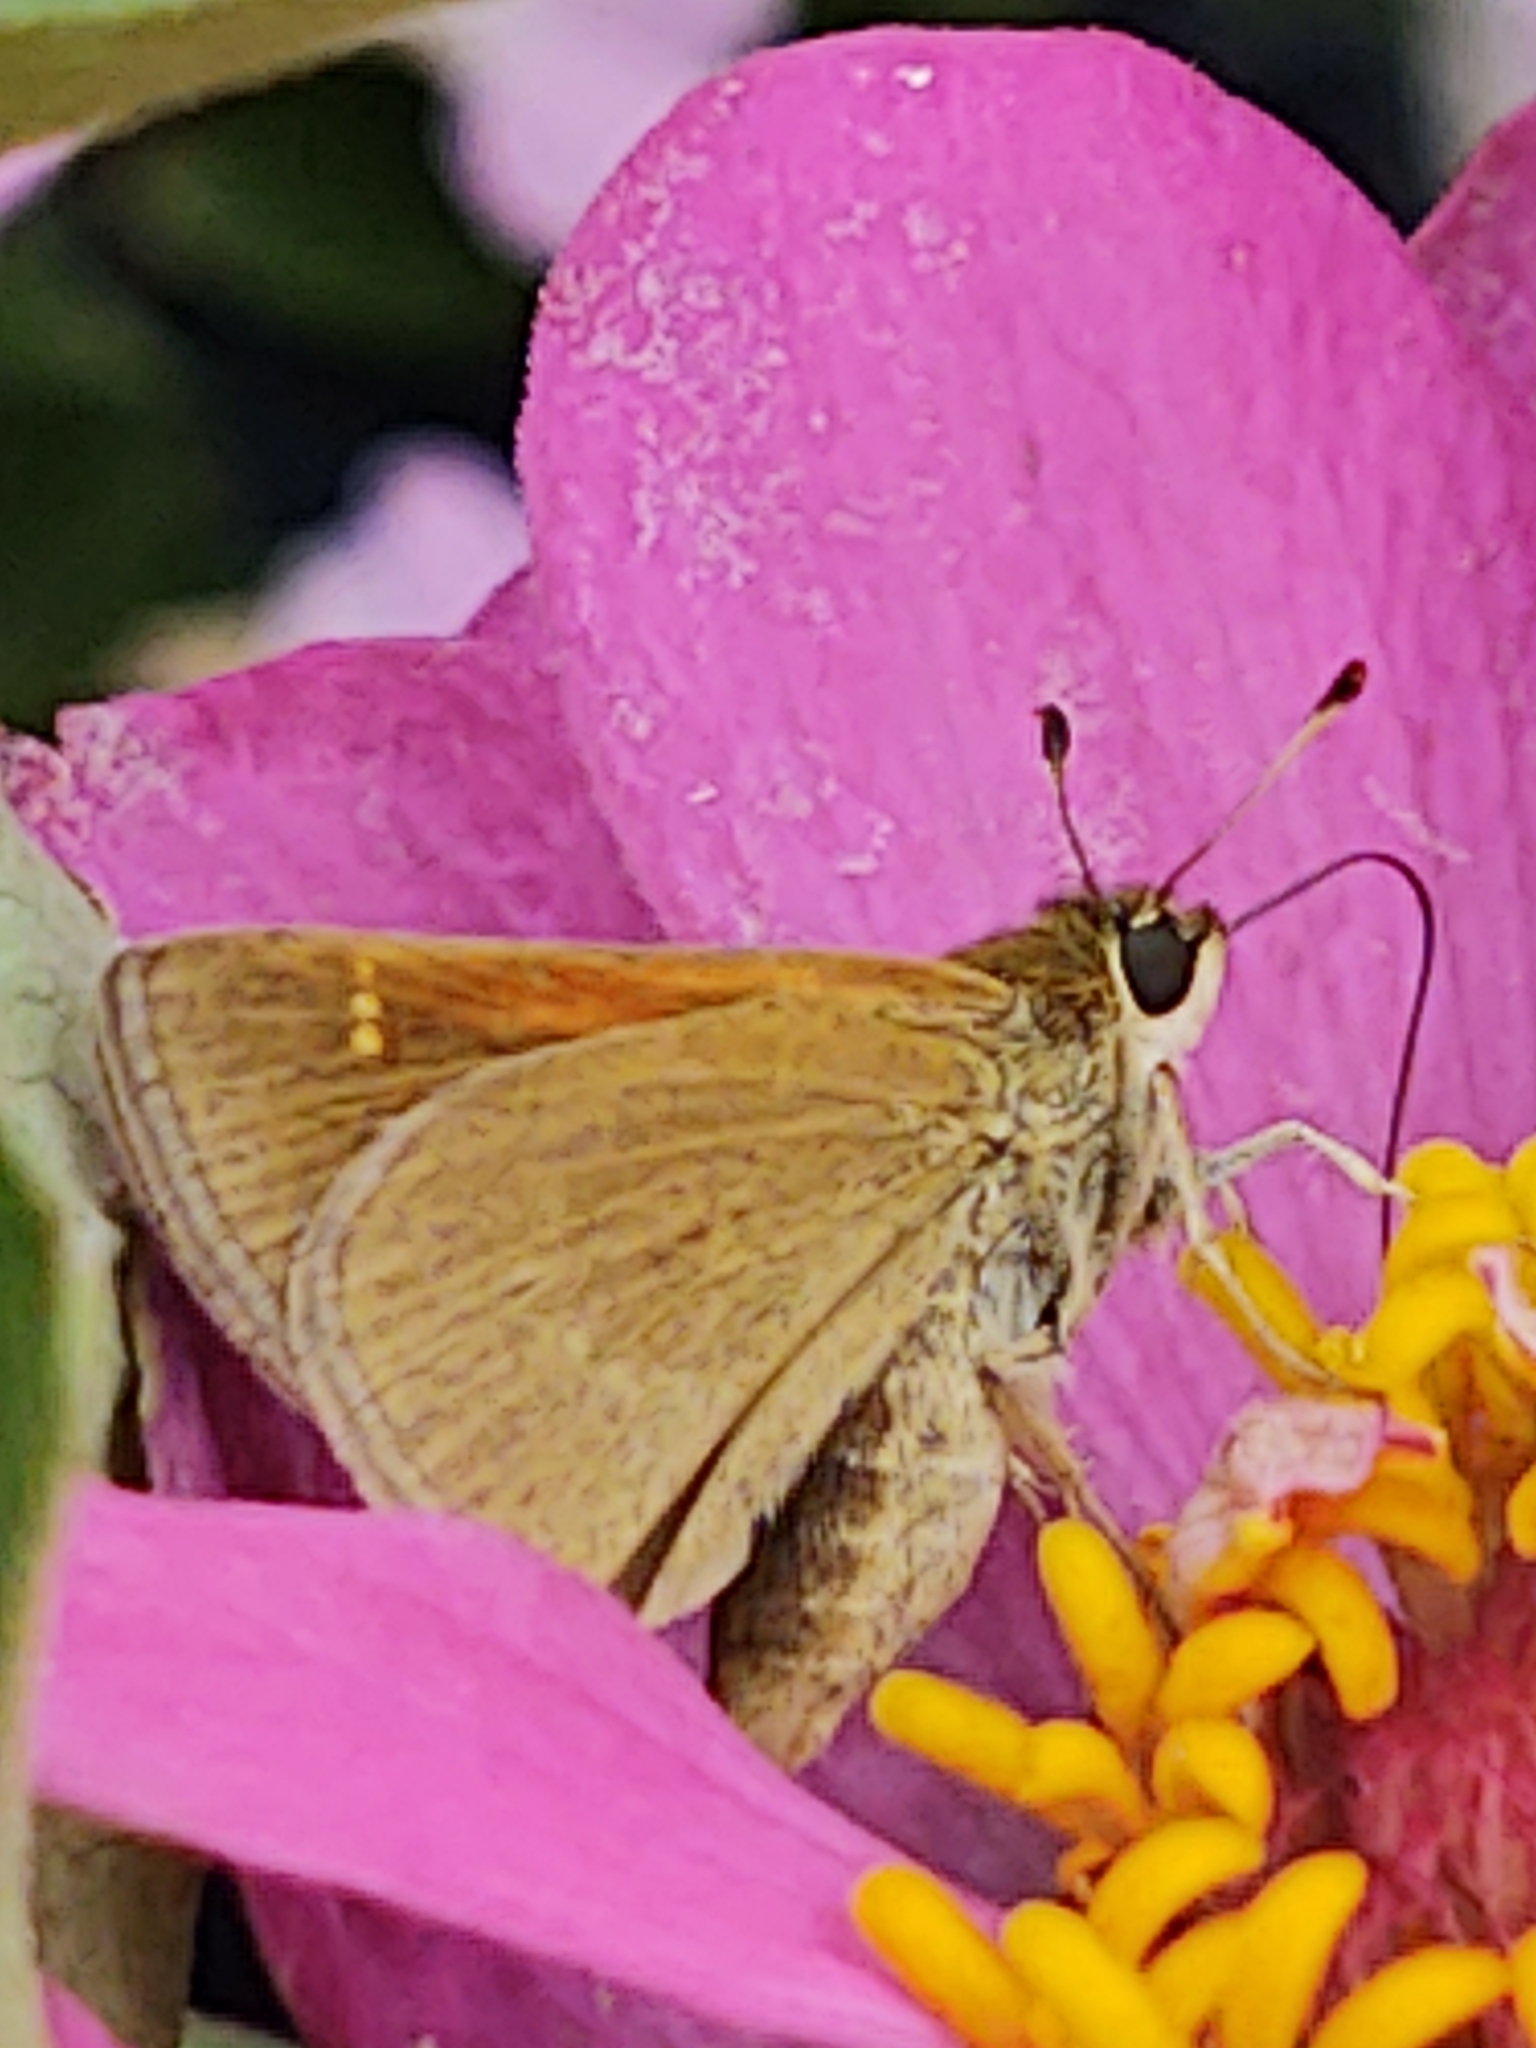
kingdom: Animalia
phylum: Arthropoda
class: Insecta
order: Lepidoptera
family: Hesperiidae
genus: Polites
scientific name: Polites themistocles
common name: Tawny-edged skipper
